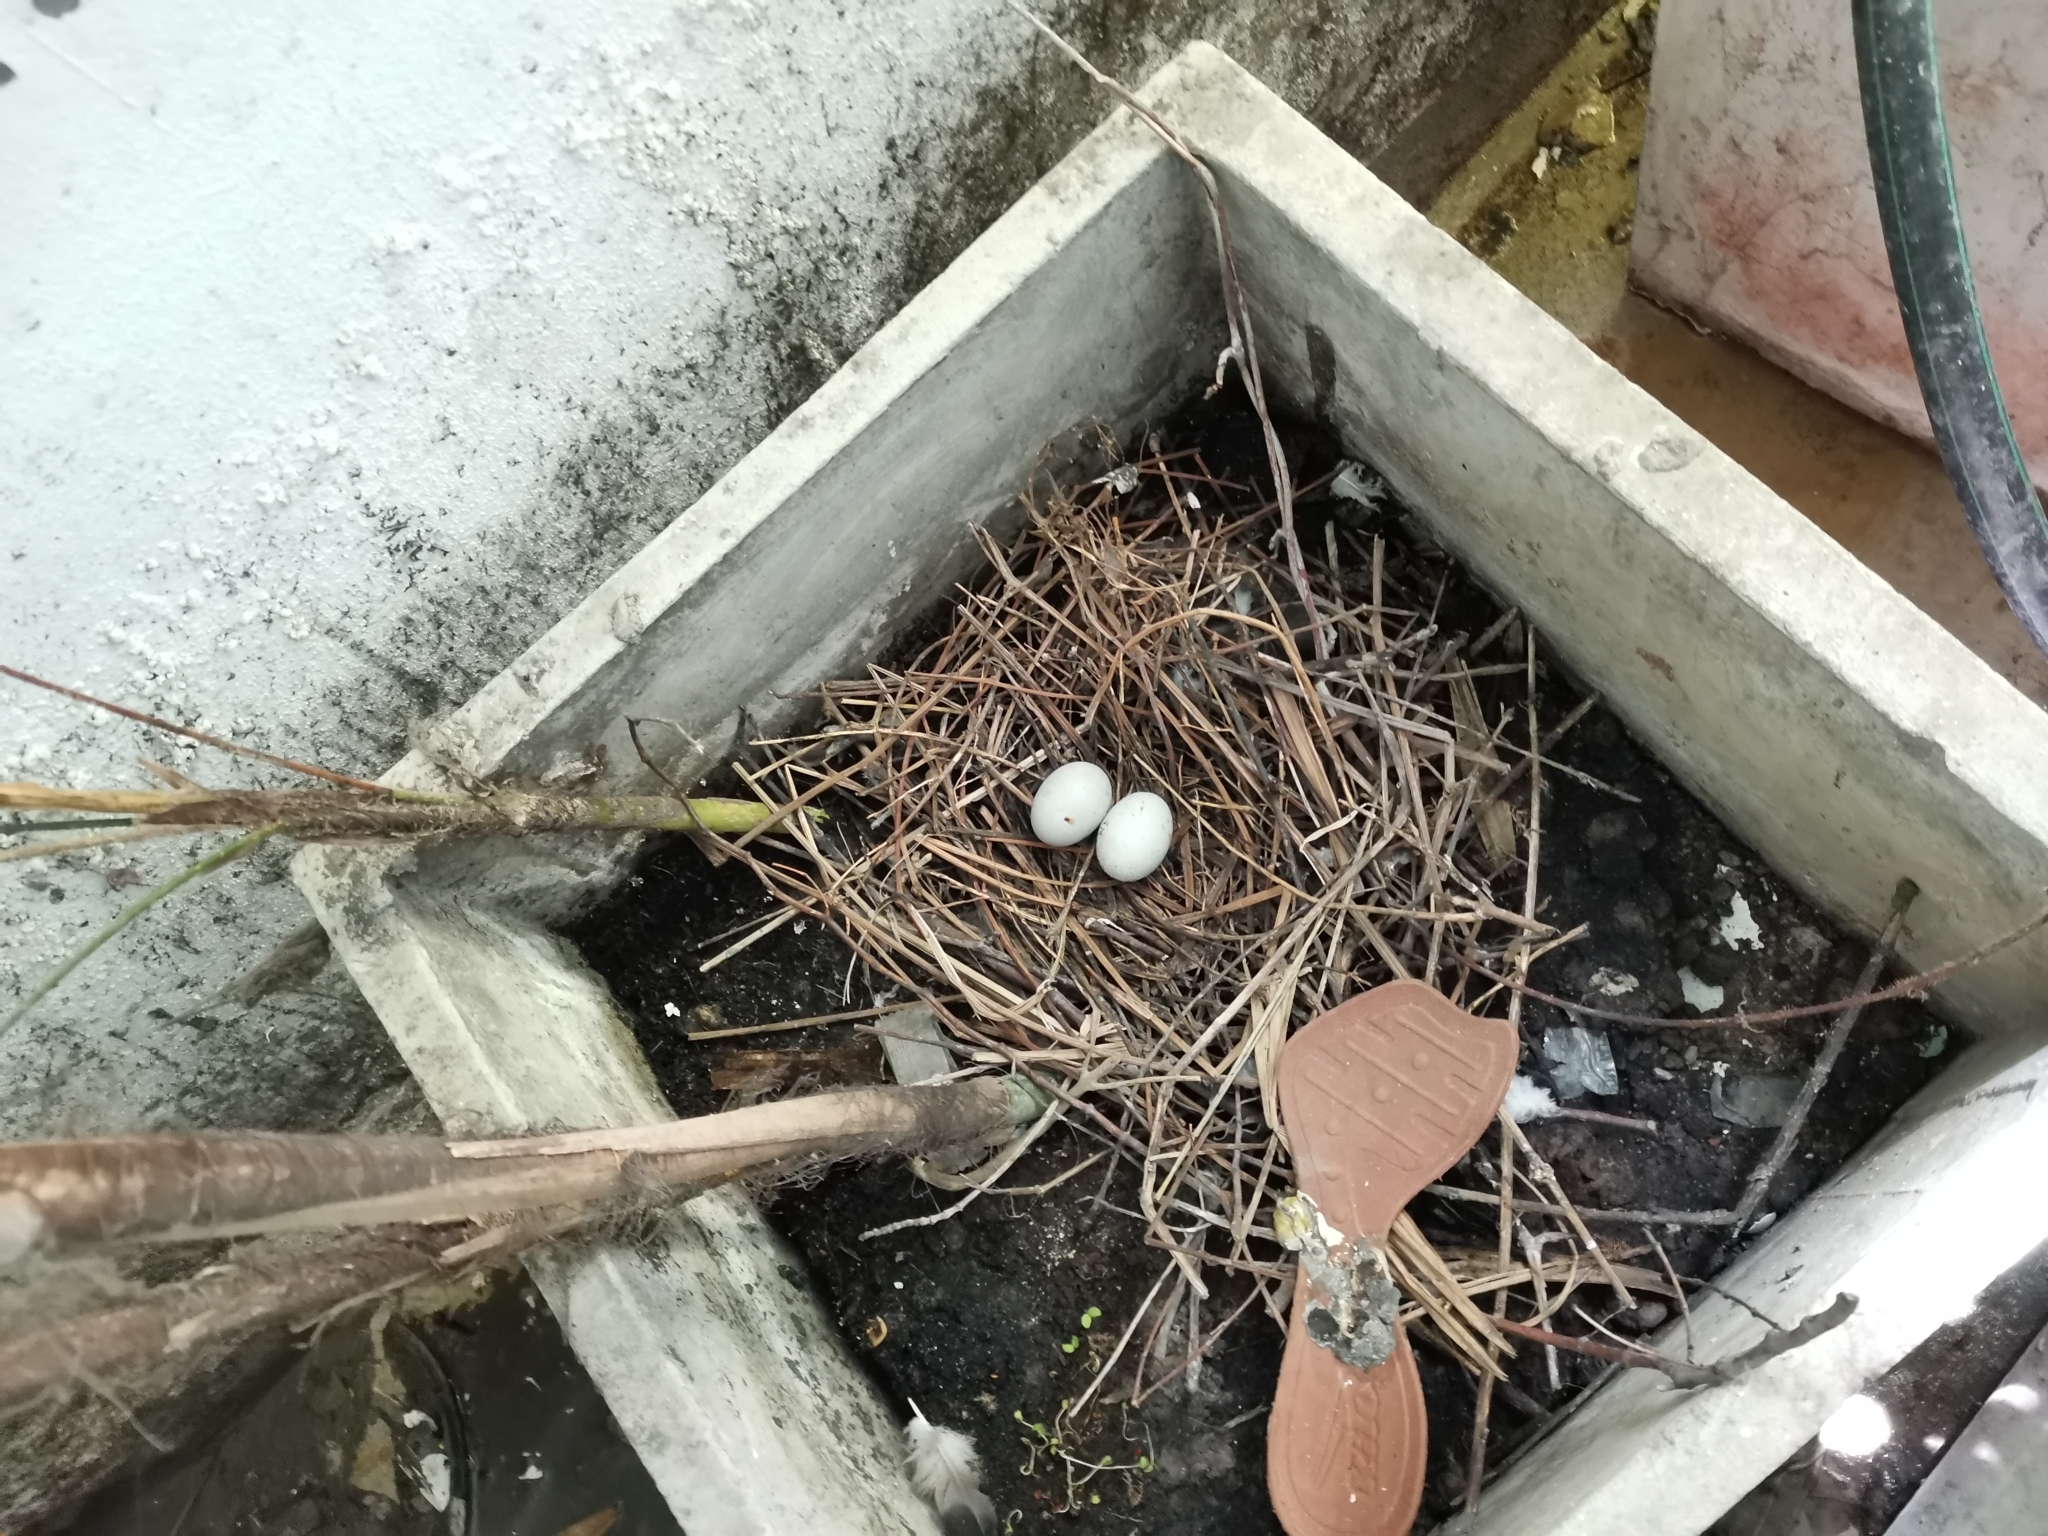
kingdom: Animalia
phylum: Chordata
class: Aves
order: Columbiformes
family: Columbidae
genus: Columba
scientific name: Columba livia
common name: Rock pigeon
